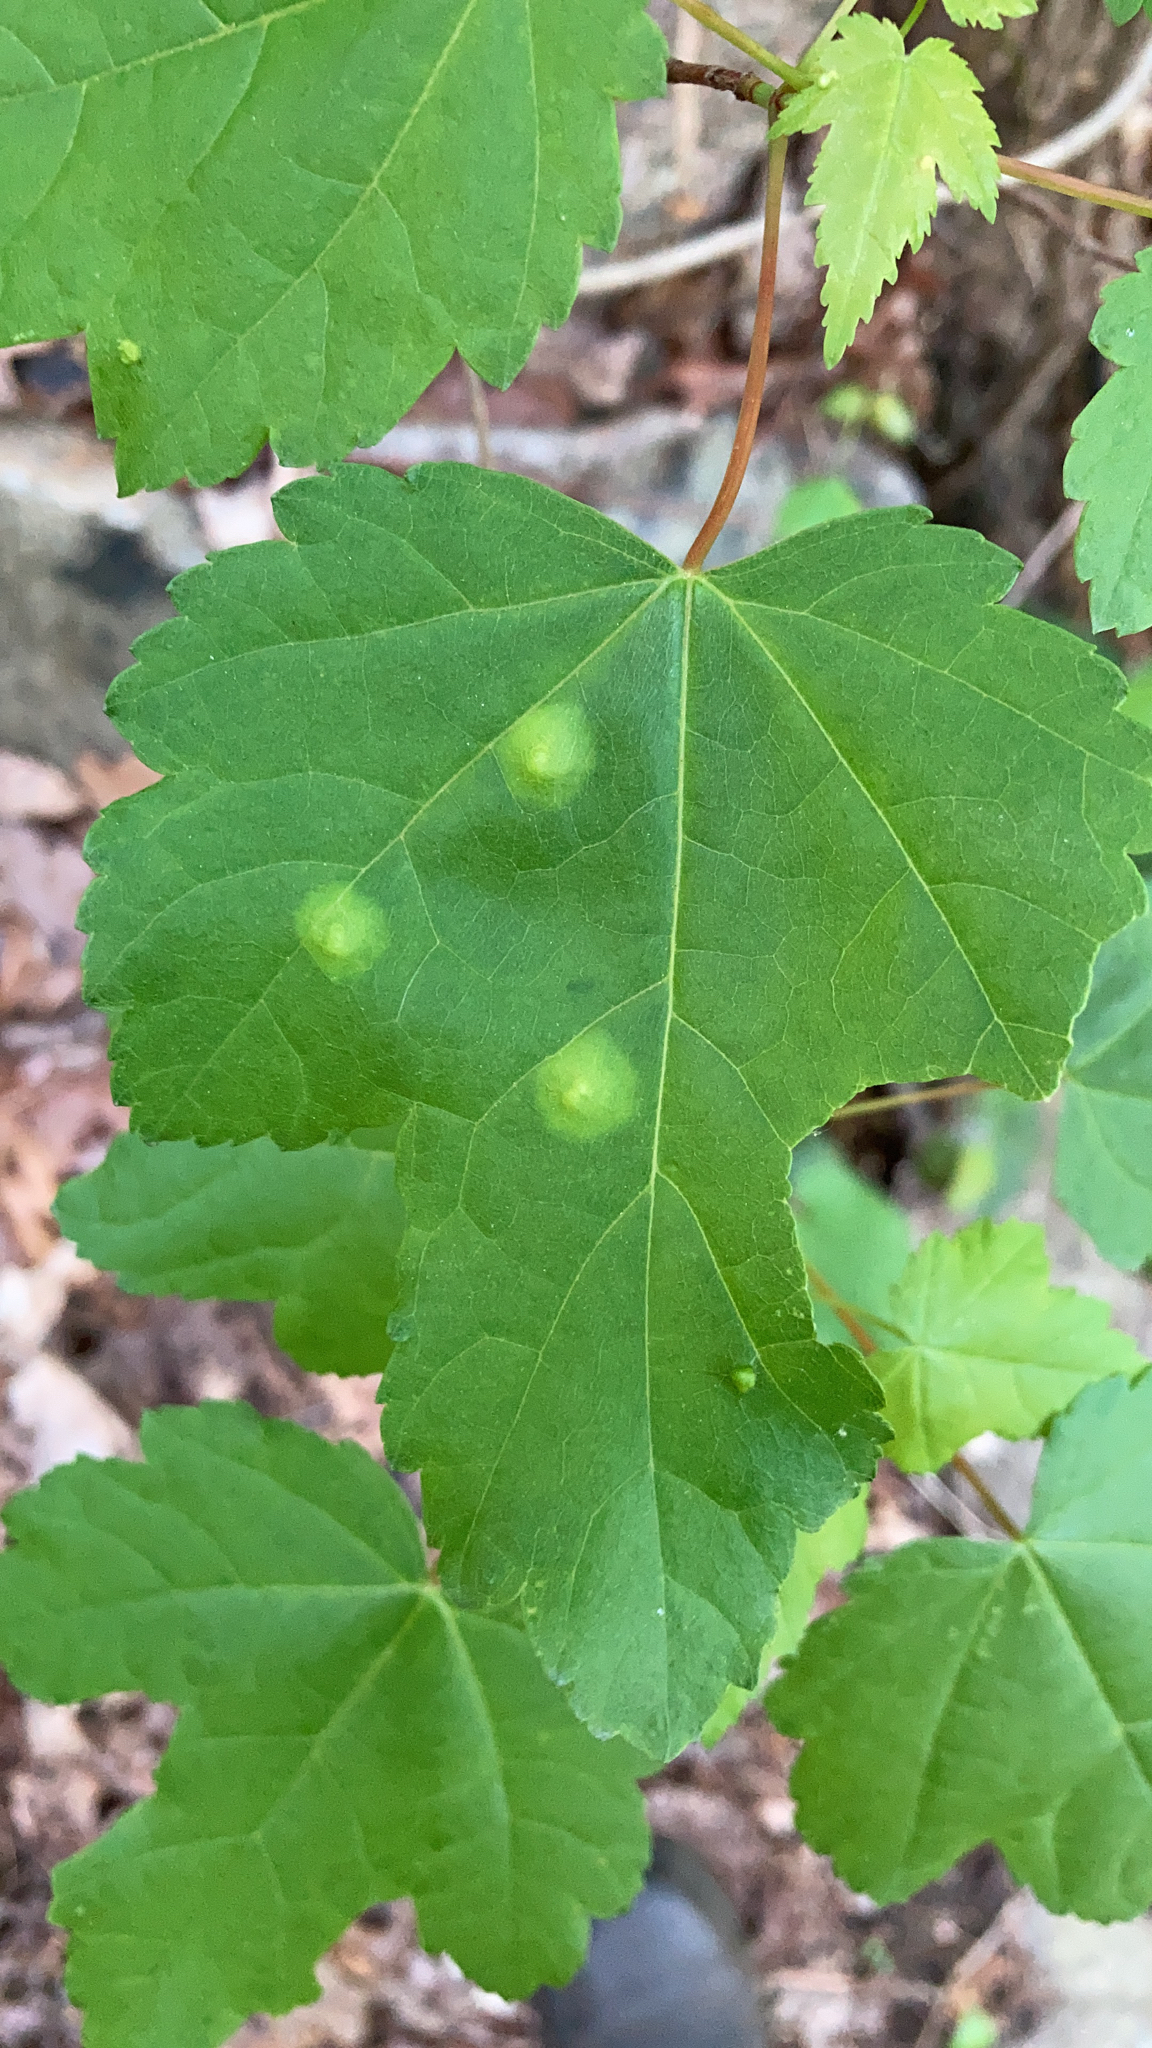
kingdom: Animalia
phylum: Arthropoda
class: Insecta
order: Diptera
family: Cecidomyiidae
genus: Acericecis
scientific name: Acericecis ocellaris
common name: Ocellate gall midge
